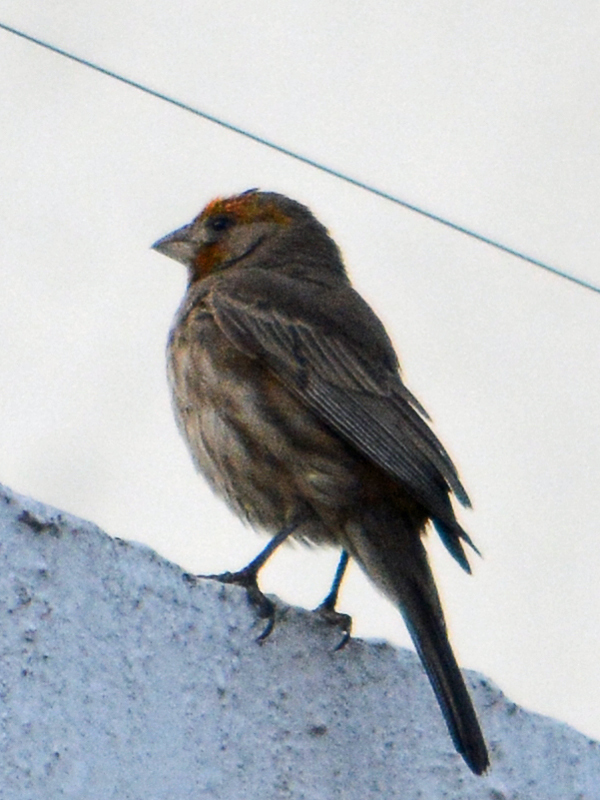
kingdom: Animalia
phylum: Chordata
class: Aves
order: Passeriformes
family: Fringillidae
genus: Haemorhous
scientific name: Haemorhous mexicanus
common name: House finch
